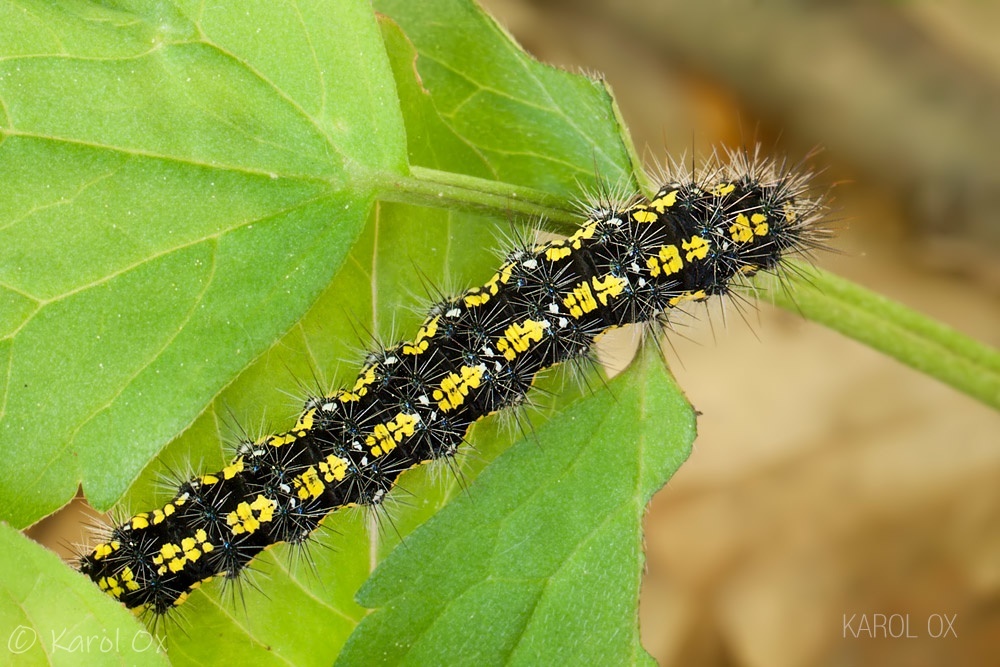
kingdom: Animalia
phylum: Arthropoda
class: Insecta
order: Lepidoptera
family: Erebidae
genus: Callimorpha
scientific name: Callimorpha dominula
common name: Scarlet tiger
